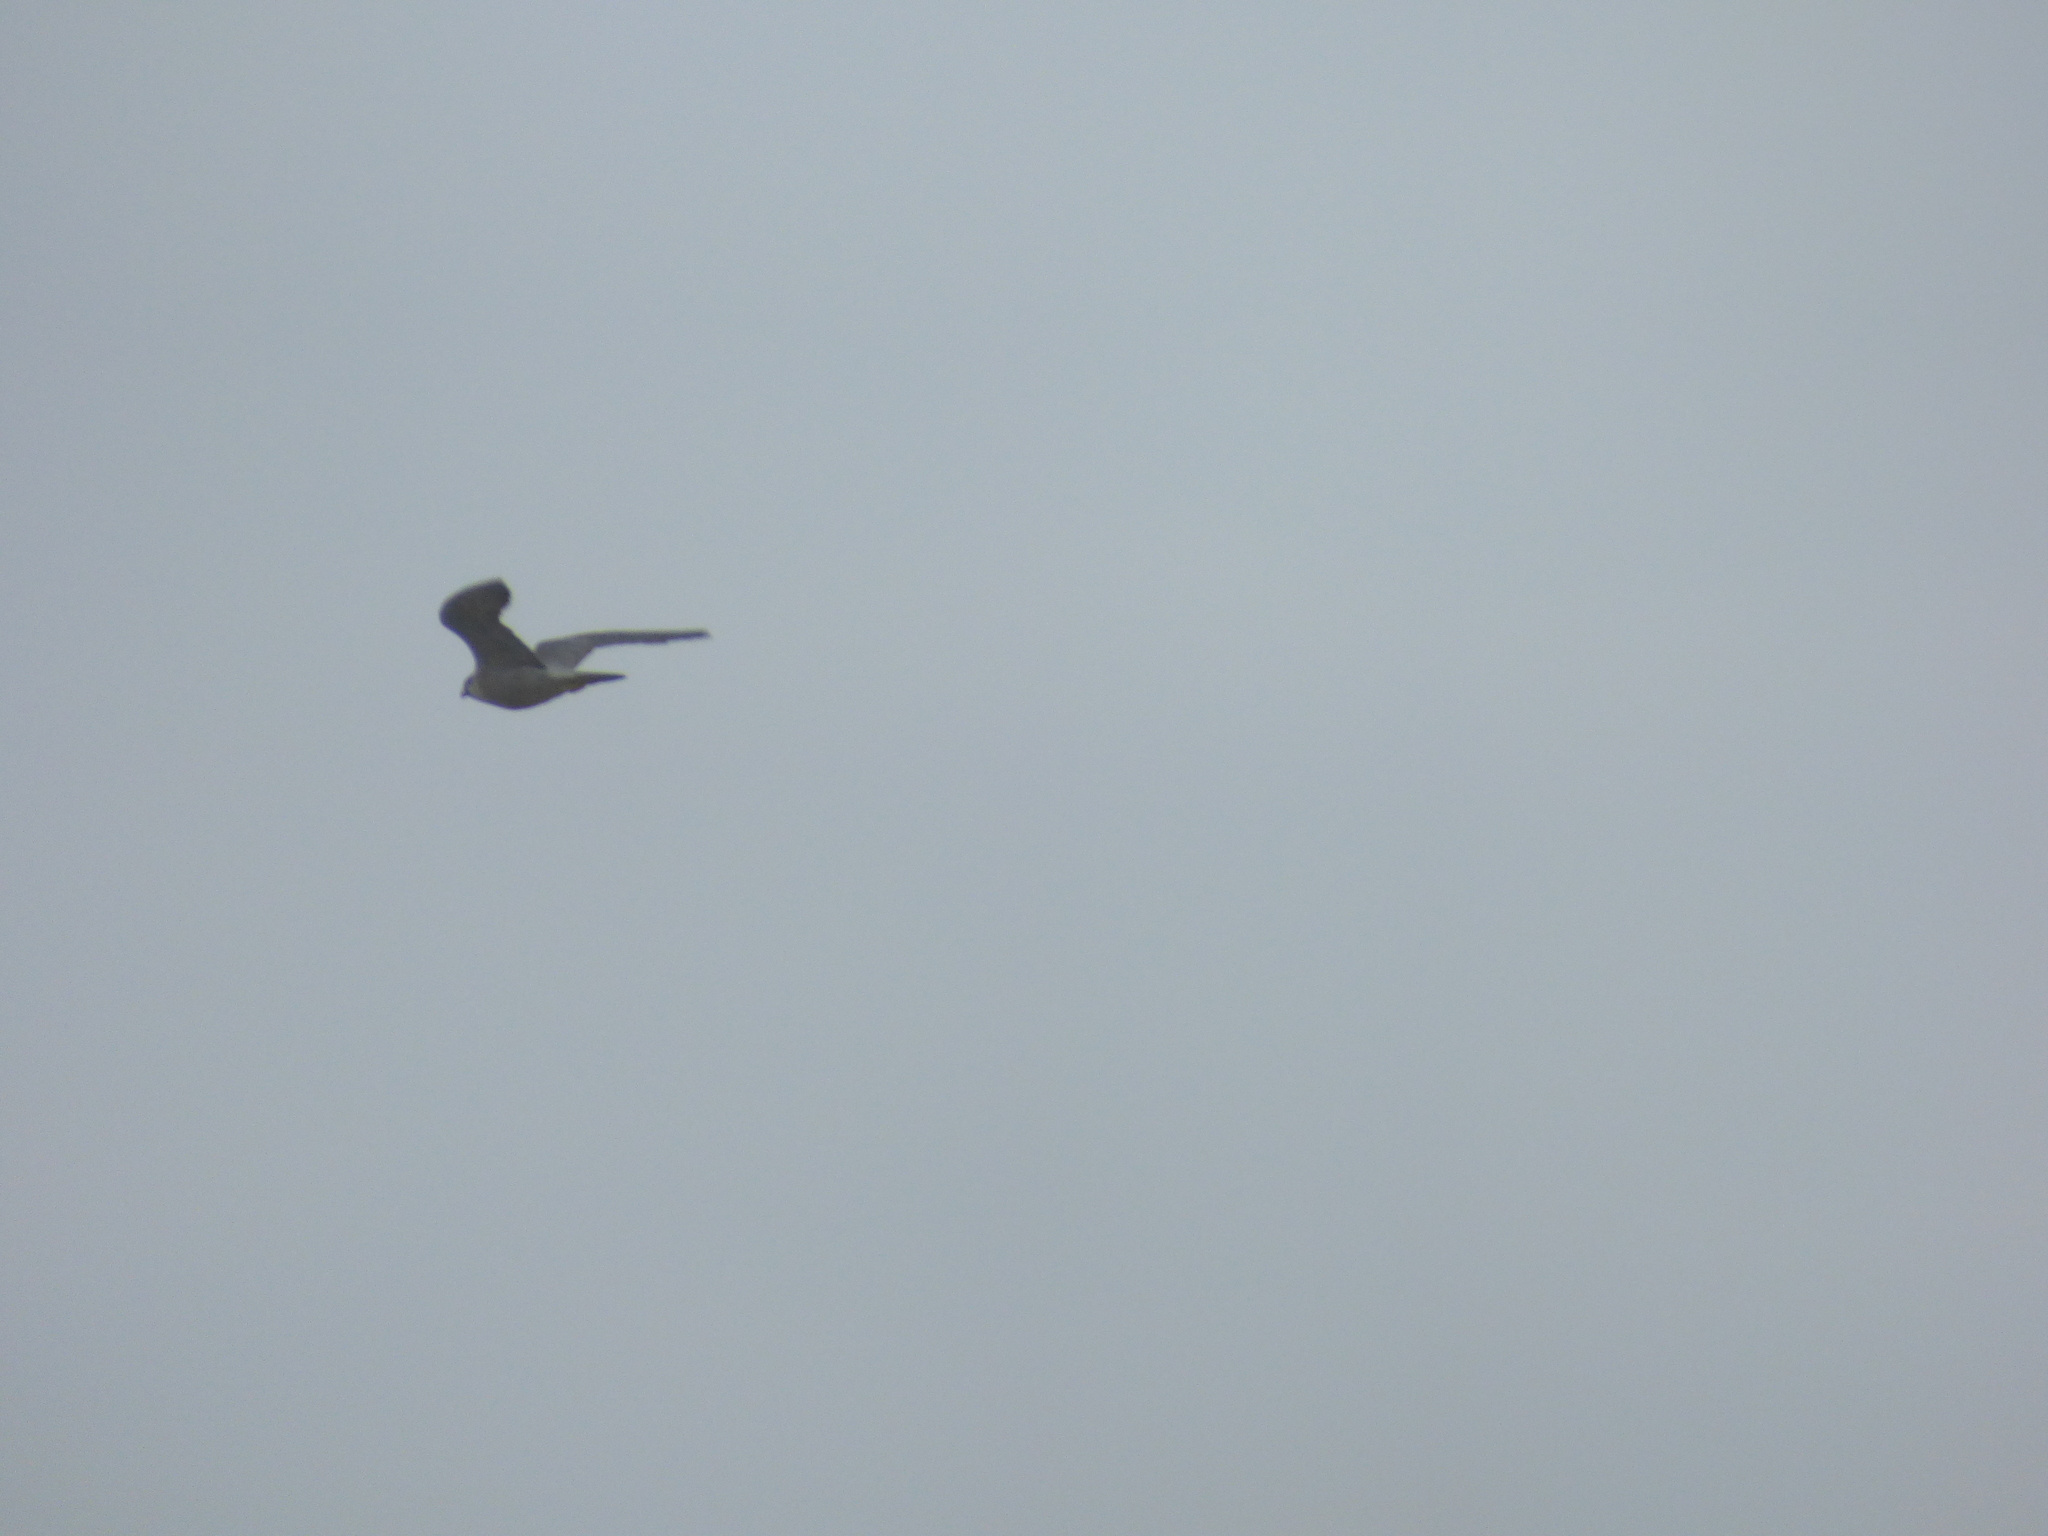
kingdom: Animalia
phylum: Chordata
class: Aves
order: Falconiformes
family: Falconidae
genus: Falco
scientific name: Falco peregrinus
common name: Peregrine falcon
